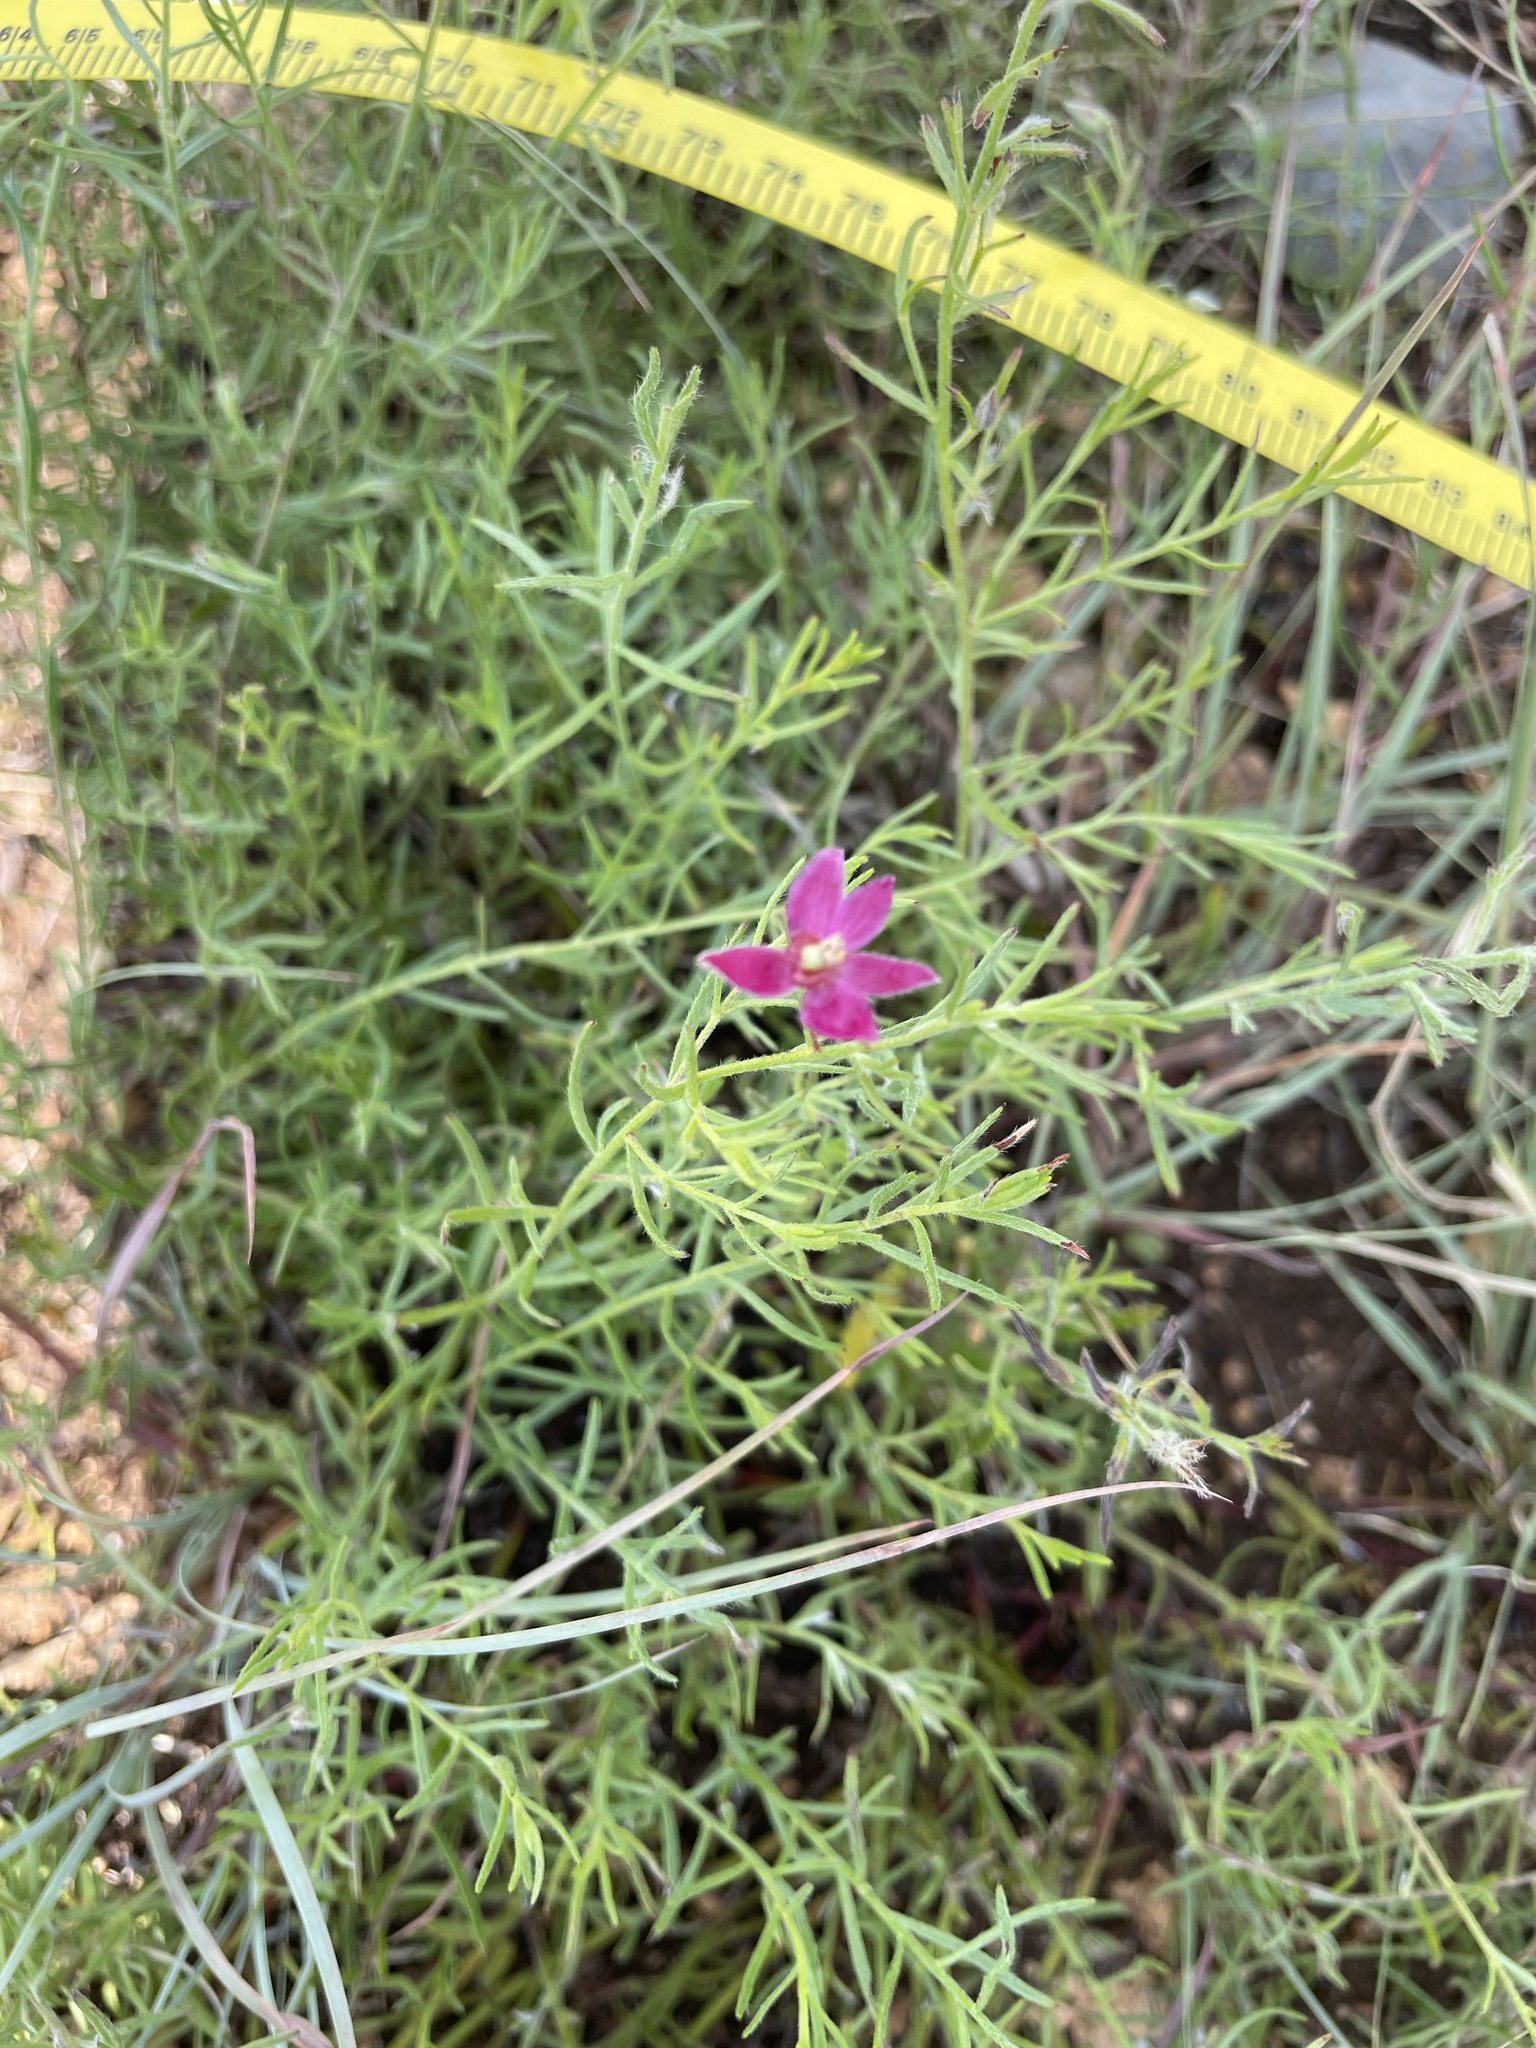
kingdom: Plantae
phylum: Tracheophyta
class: Magnoliopsida
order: Zygophyllales
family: Krameriaceae
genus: Krameria
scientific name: Krameria lanceolata
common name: Ratany
